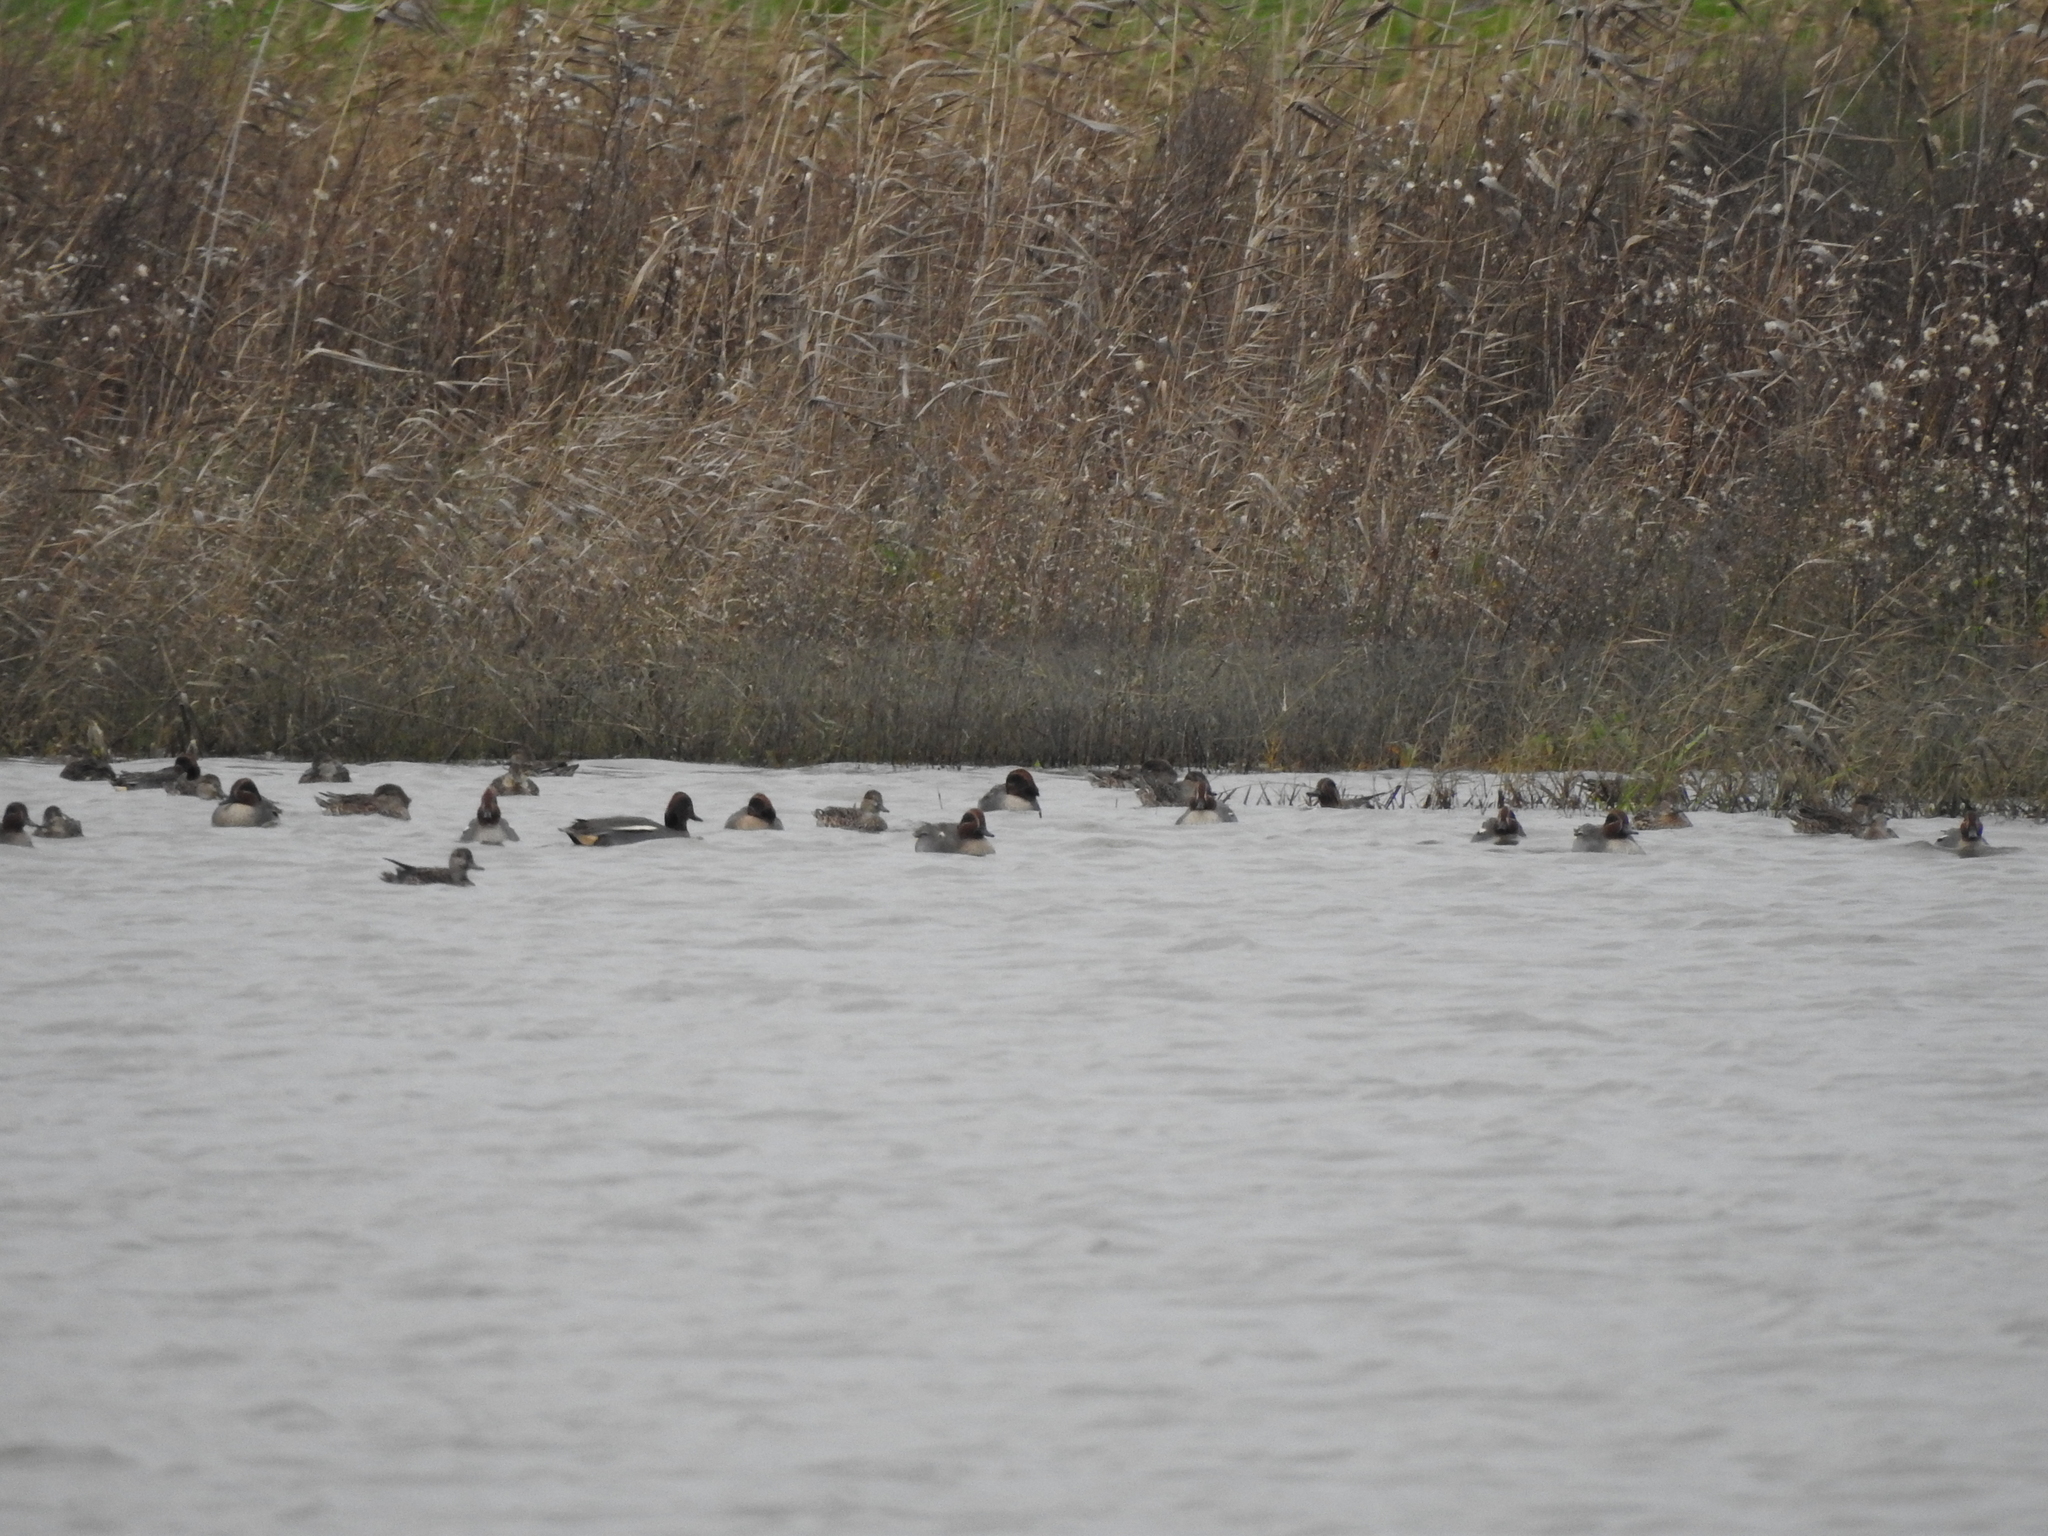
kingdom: Animalia
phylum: Chordata
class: Aves
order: Anseriformes
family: Anatidae
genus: Anas
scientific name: Anas crecca
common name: Eurasian teal
